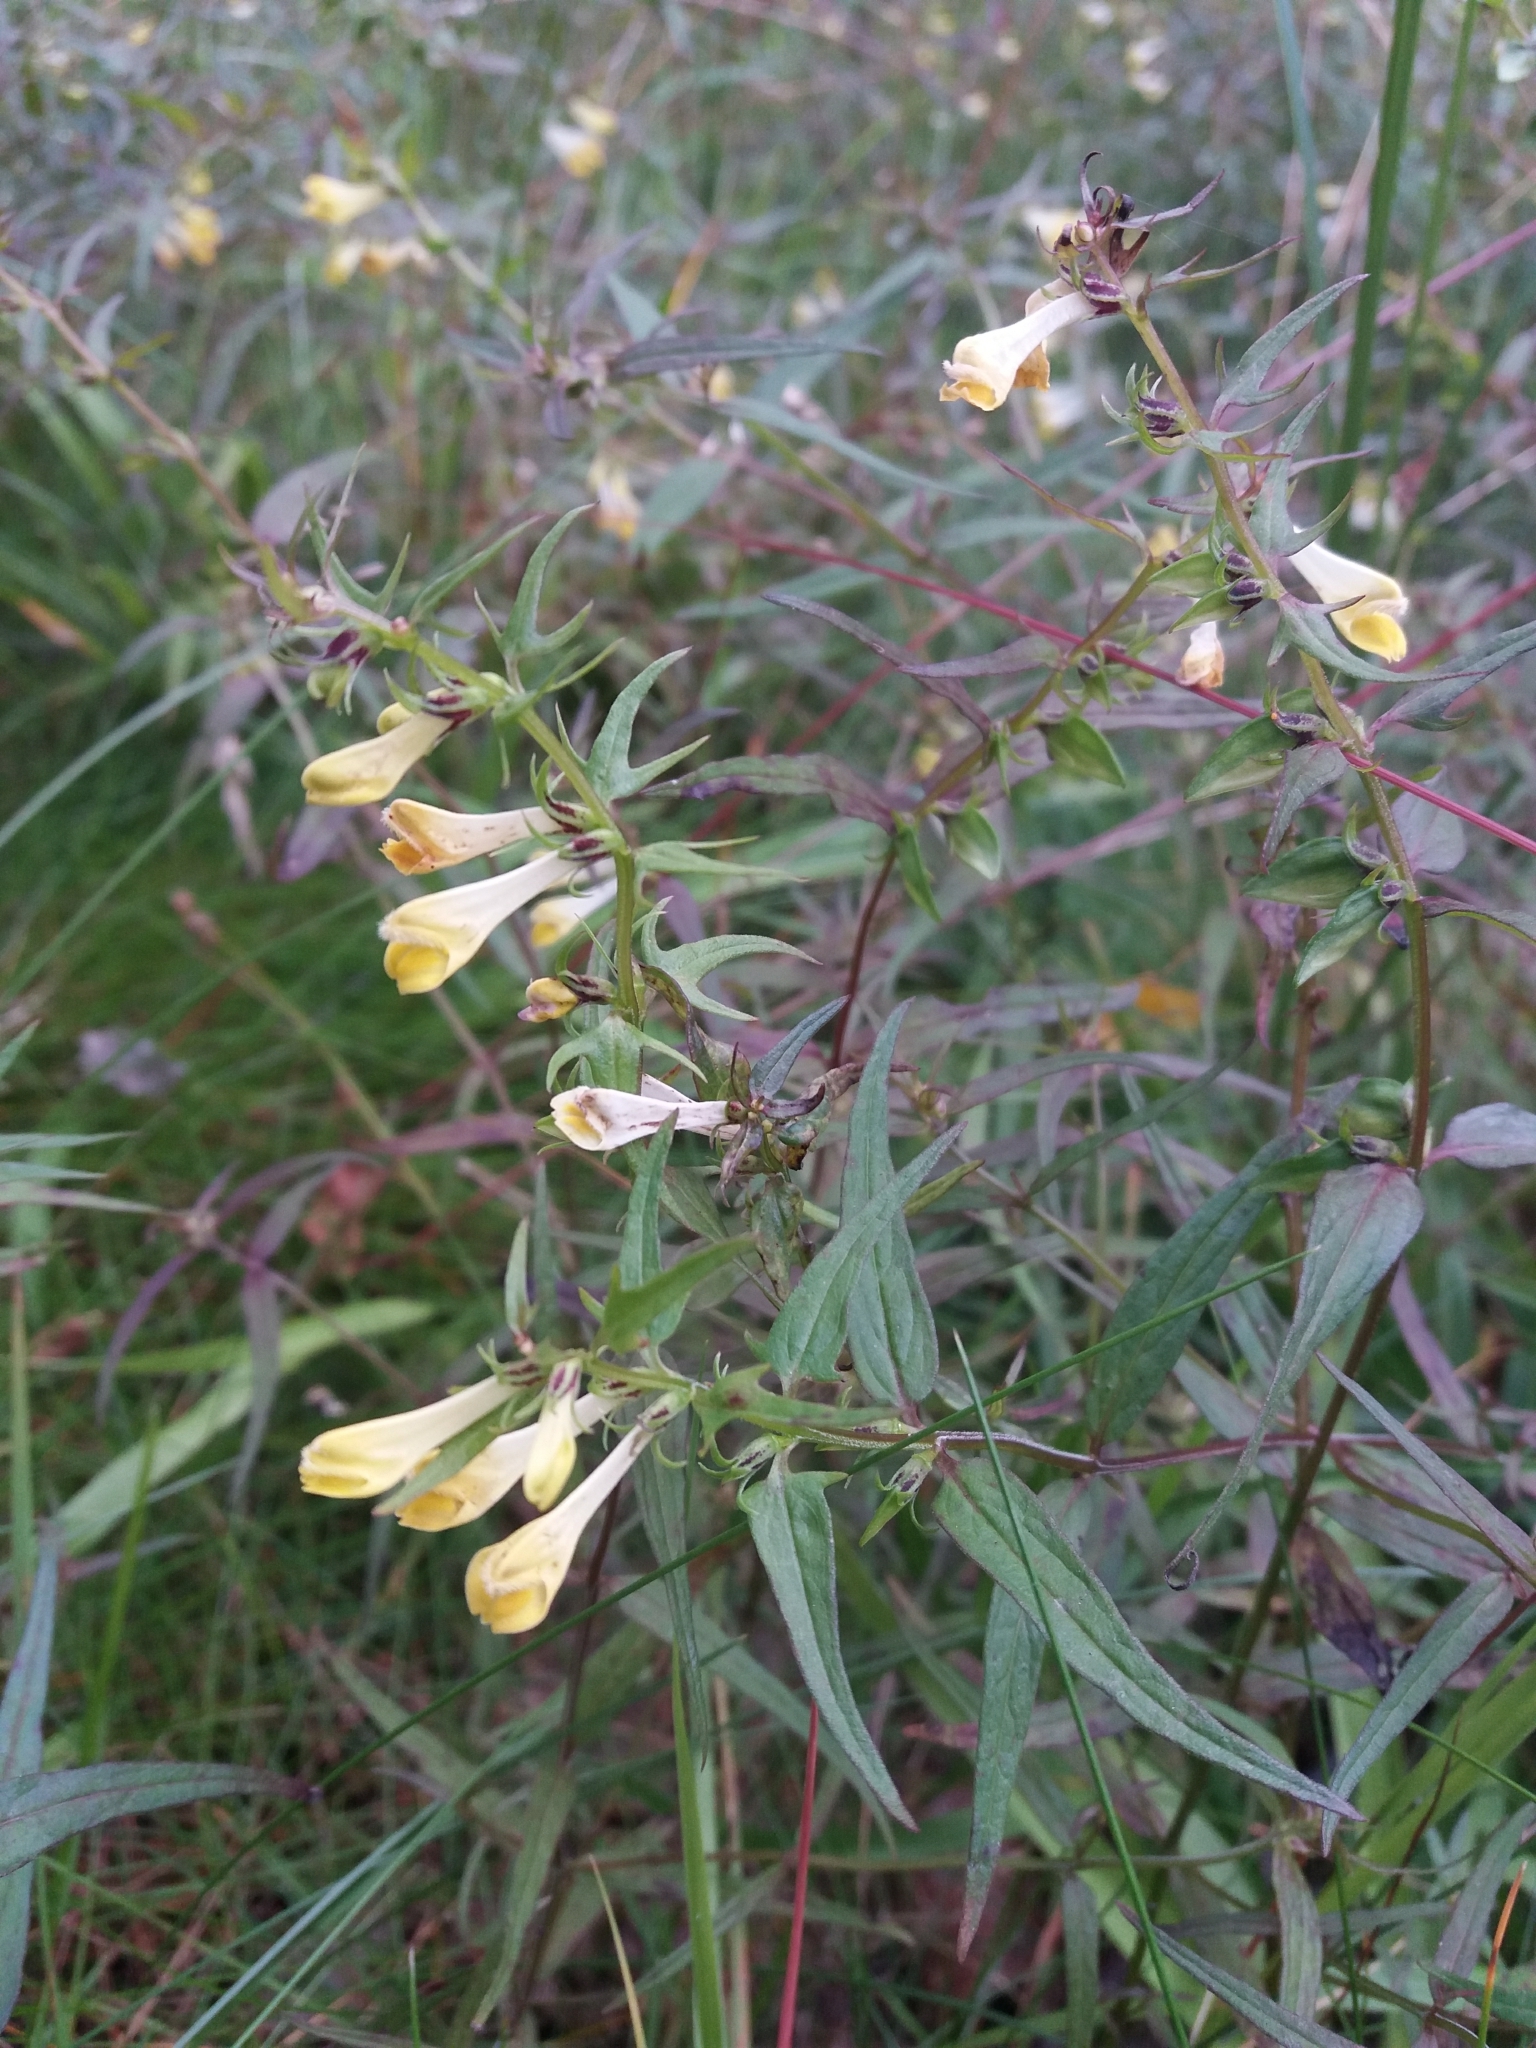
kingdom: Plantae
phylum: Tracheophyta
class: Magnoliopsida
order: Lamiales
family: Orobanchaceae
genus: Melampyrum
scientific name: Melampyrum pratense
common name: Common cow-wheat
